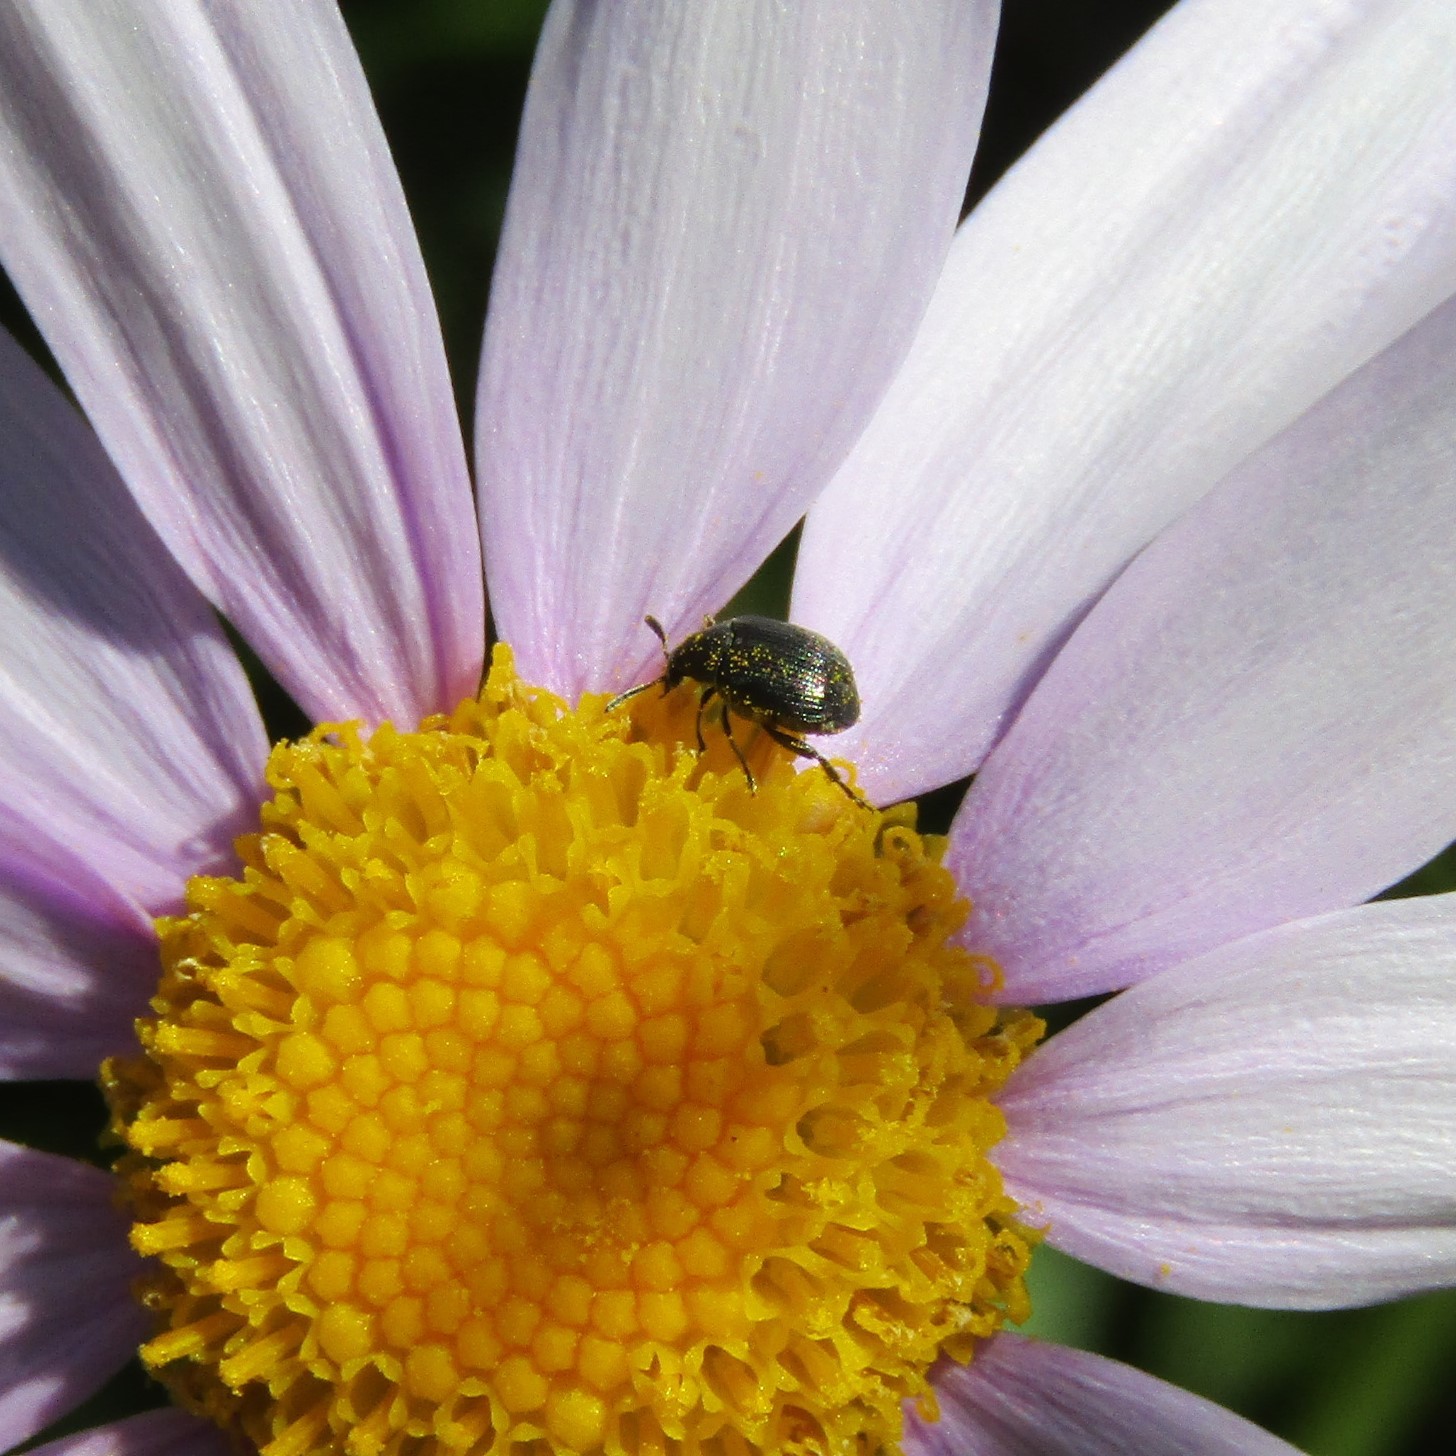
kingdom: Animalia
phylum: Arthropoda
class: Insecta
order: Coleoptera
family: Chrysomelidae
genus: Bruchidius
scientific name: Bruchidius villosus
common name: Scotch broom bruchid
